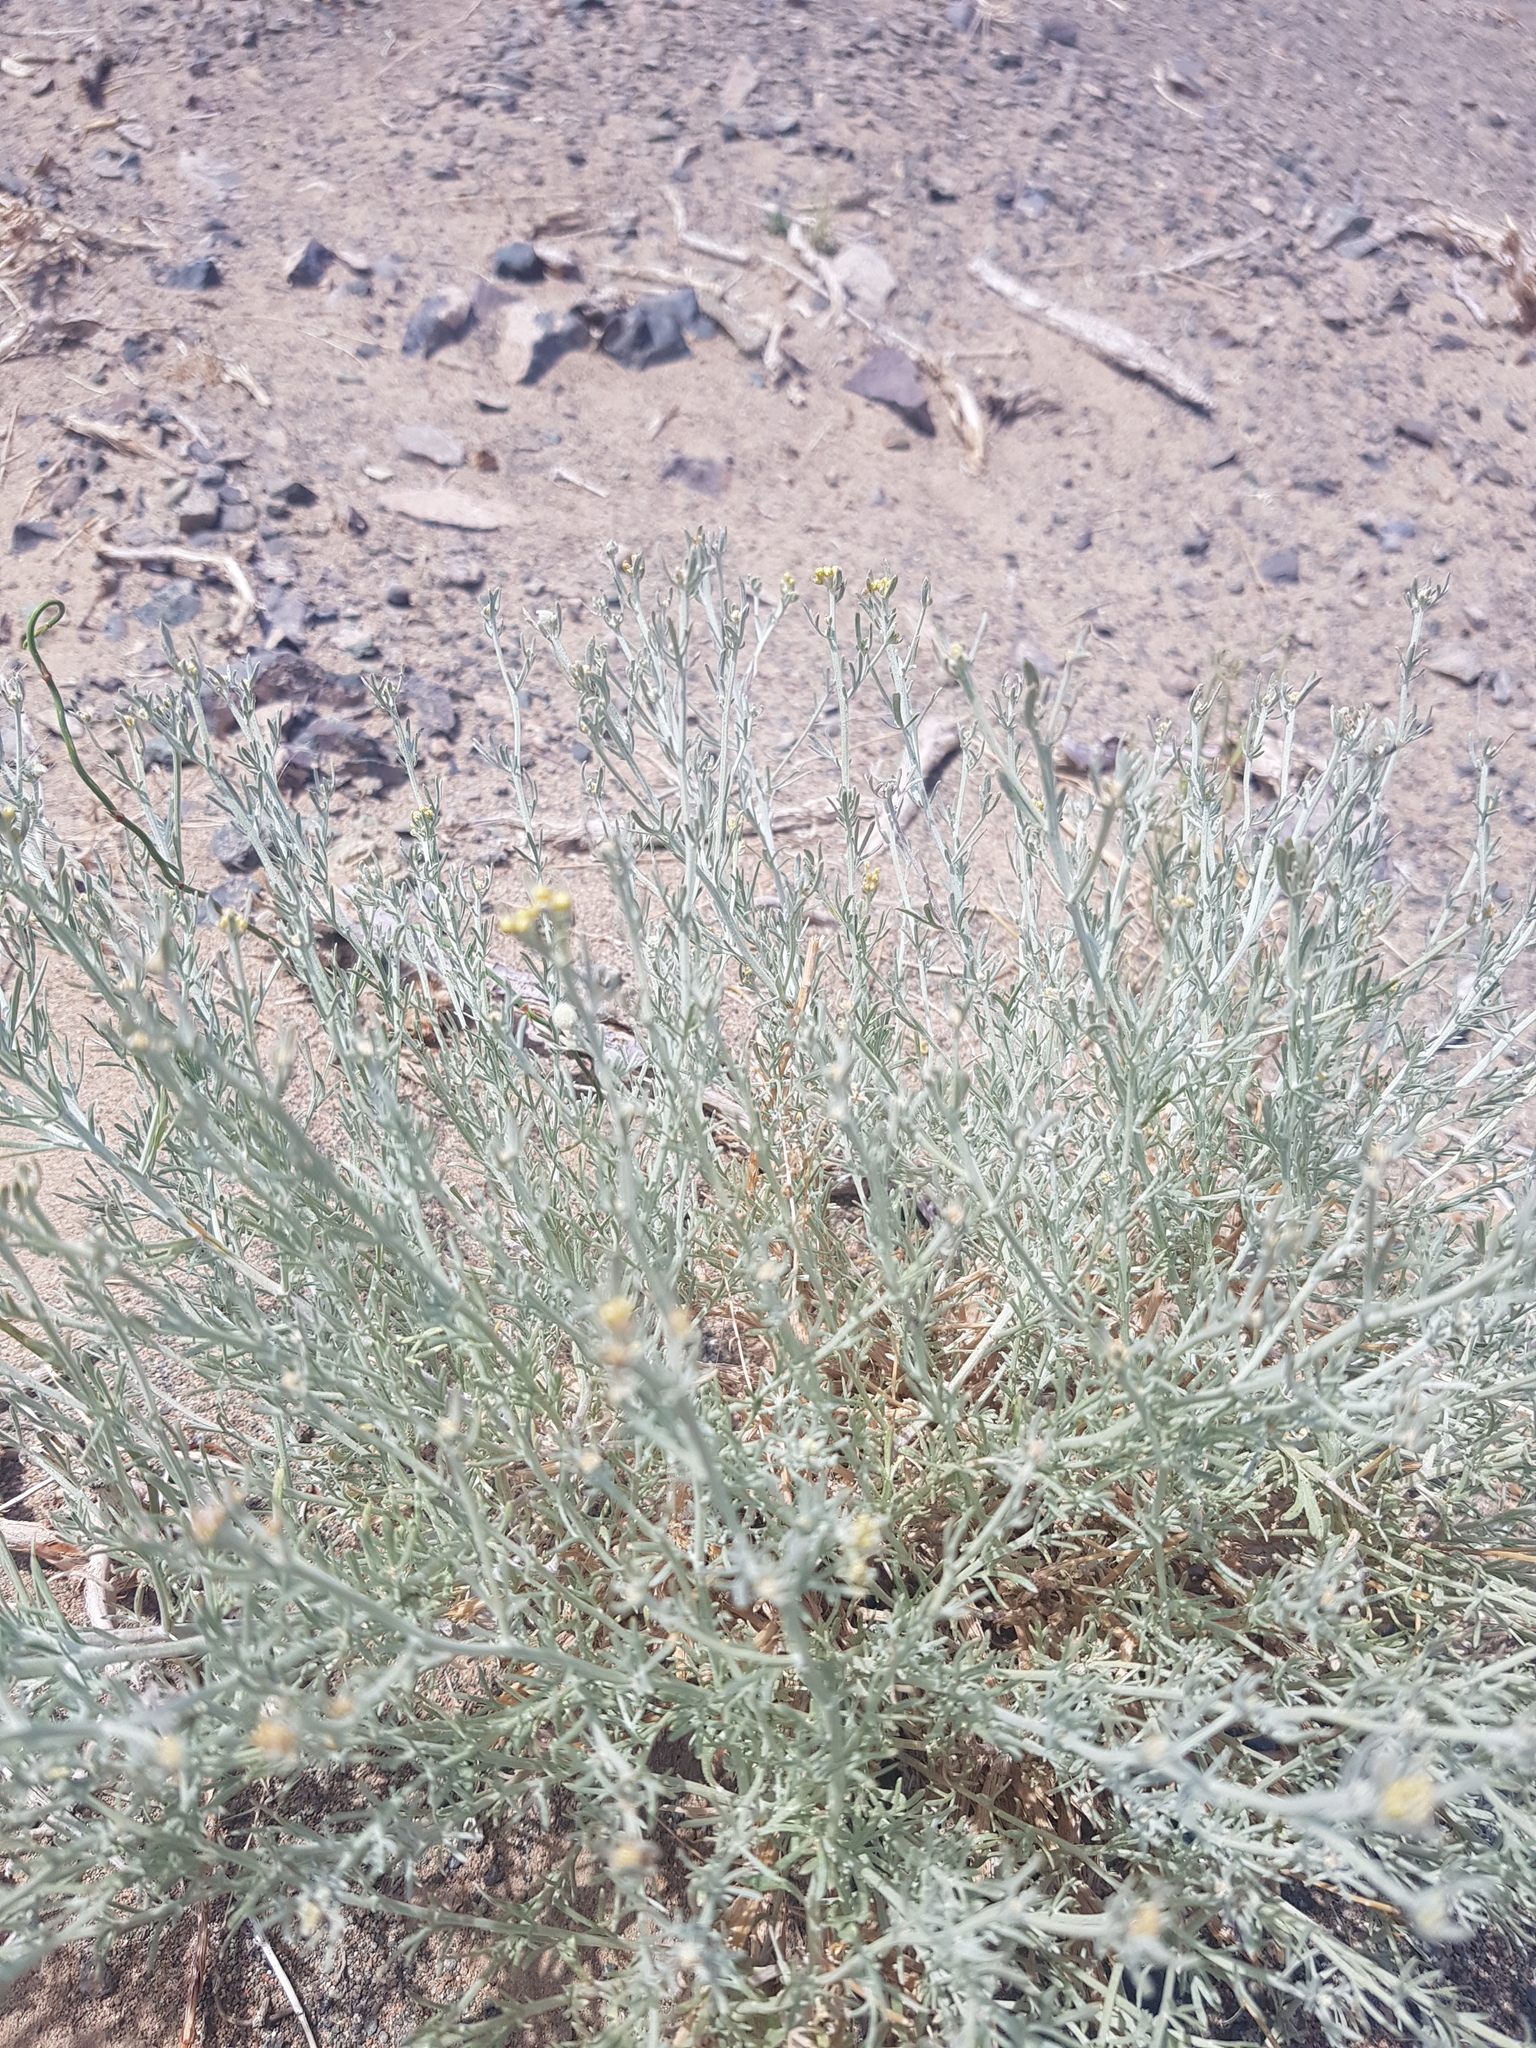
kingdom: Plantae
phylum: Tracheophyta
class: Magnoliopsida
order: Asterales
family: Asteraceae
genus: Ajania
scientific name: Ajania achilleoides
